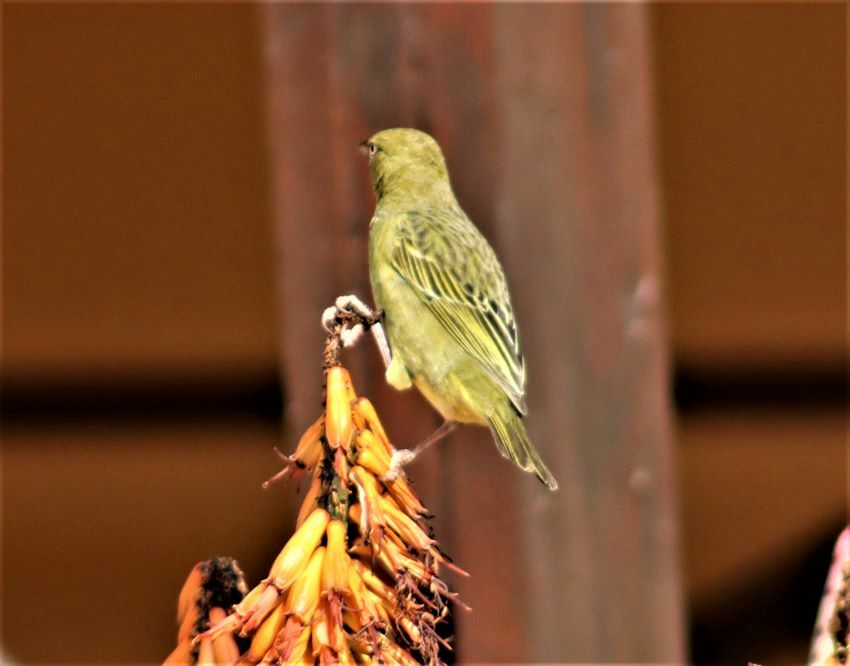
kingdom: Animalia
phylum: Chordata
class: Aves
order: Passeriformes
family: Ploceidae
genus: Ploceus
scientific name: Ploceus capensis
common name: Cape weaver
